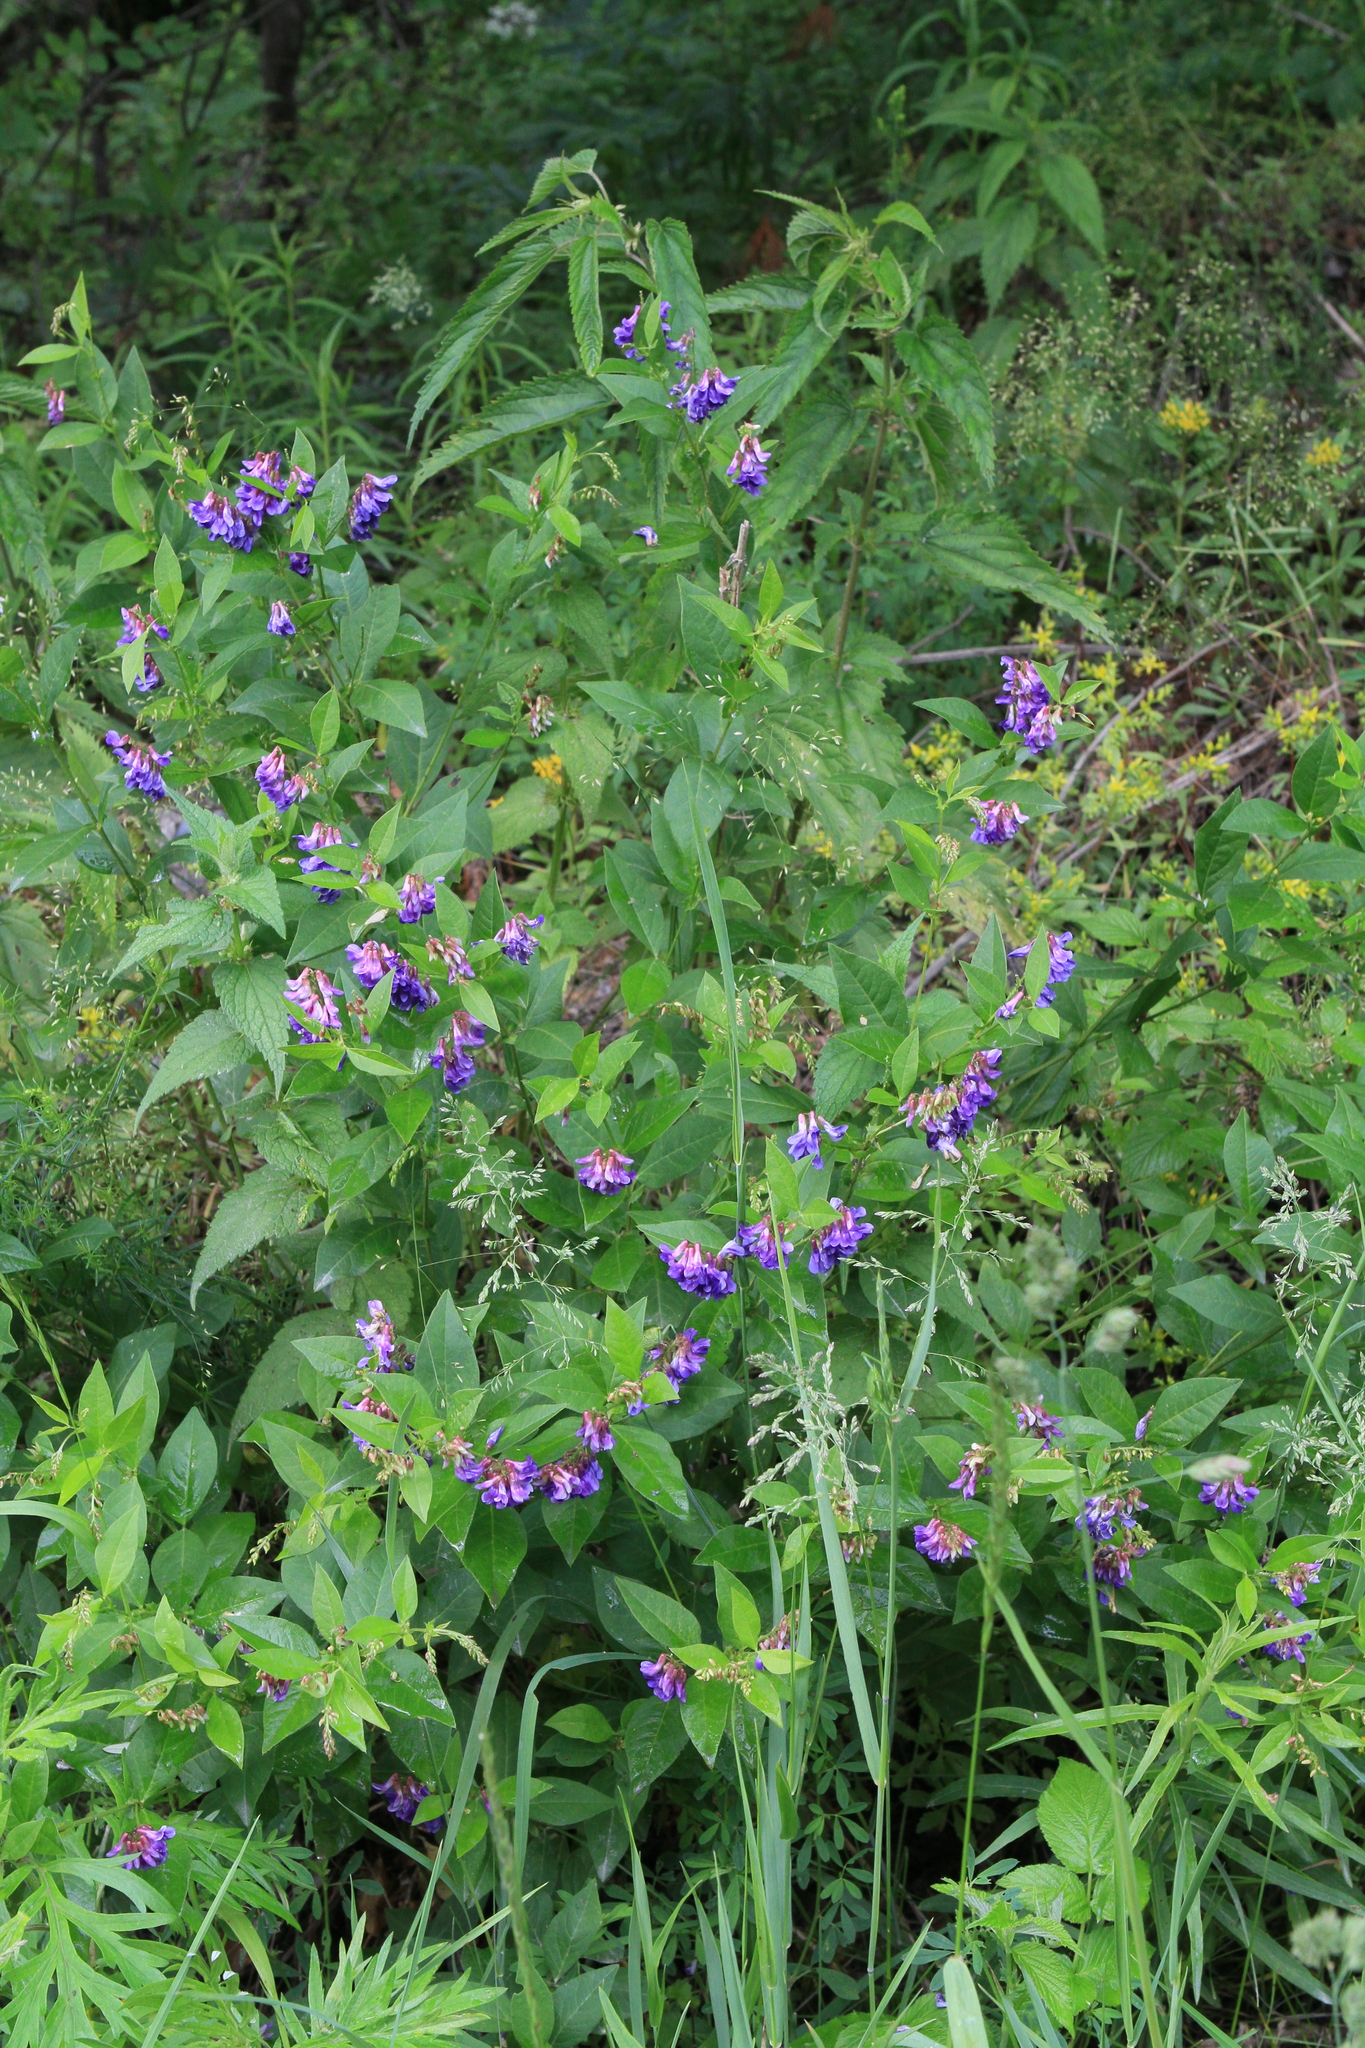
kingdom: Plantae
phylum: Tracheophyta
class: Magnoliopsida
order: Fabales
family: Fabaceae
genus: Vicia
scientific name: Vicia unijuga
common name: Two-leaf vetch
